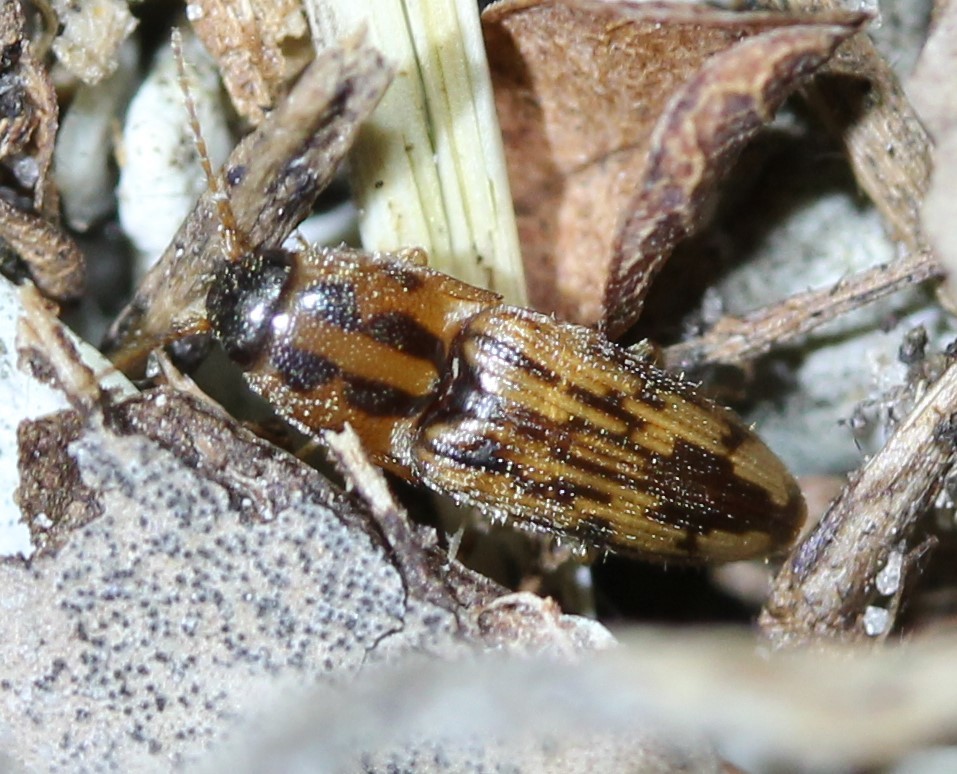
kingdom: Animalia
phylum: Arthropoda
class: Insecta
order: Coleoptera
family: Elateridae
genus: Monocrepidius
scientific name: Monocrepidius
